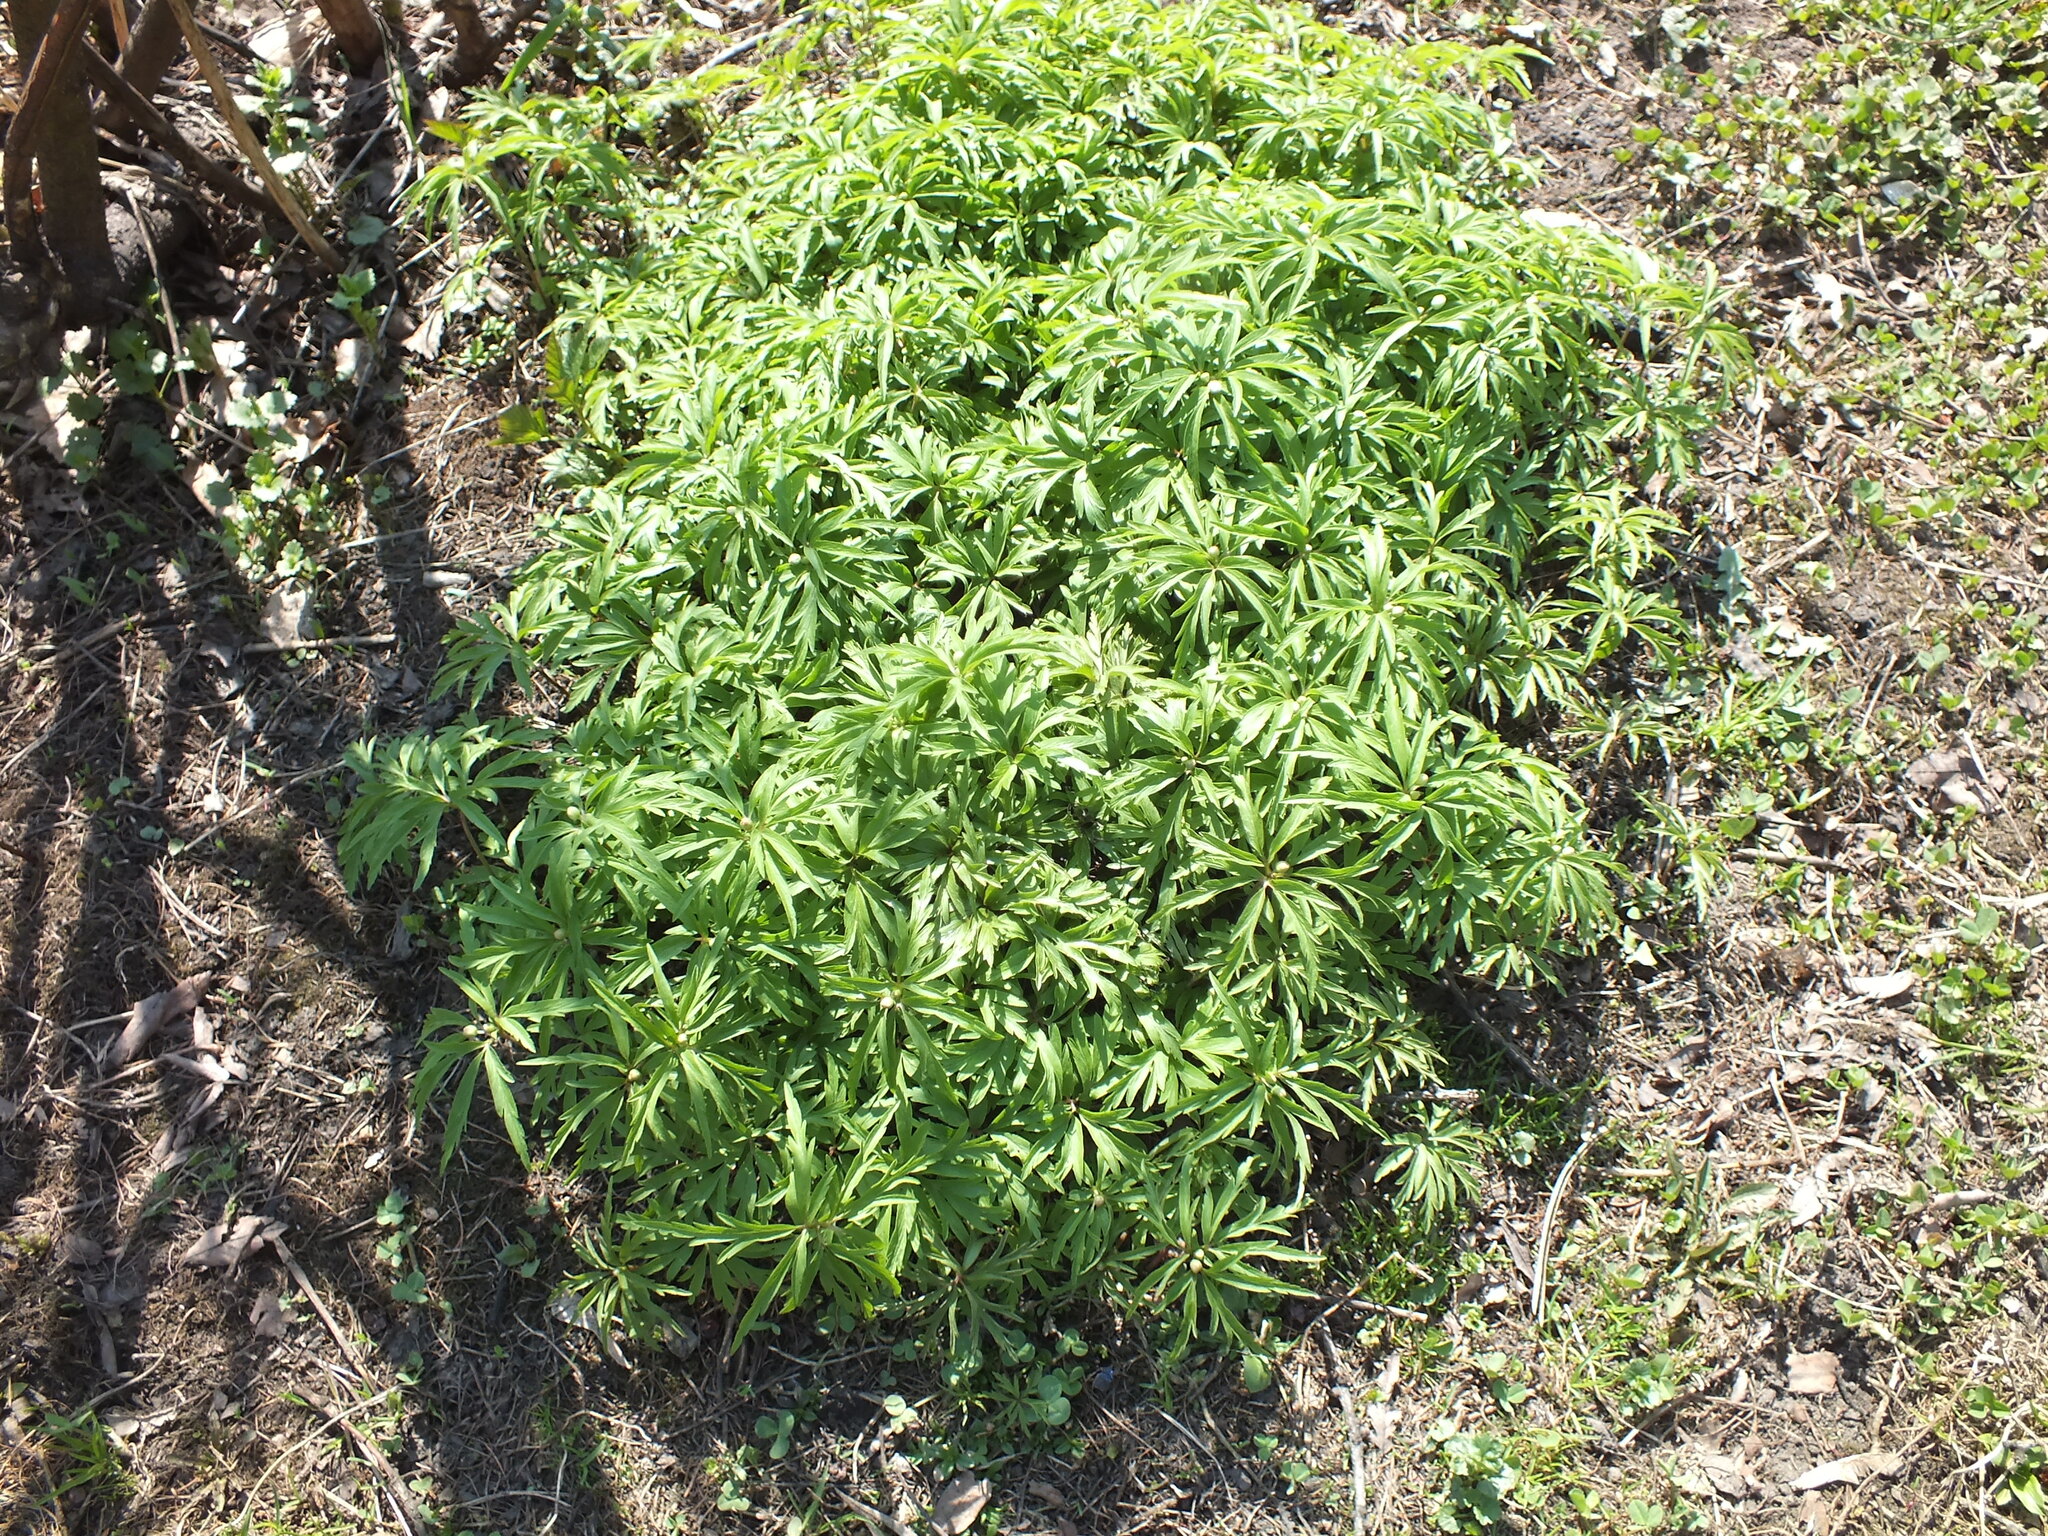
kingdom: Plantae
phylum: Tracheophyta
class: Magnoliopsida
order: Ranunculales
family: Ranunculaceae
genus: Anemone
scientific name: Anemone caerulea
